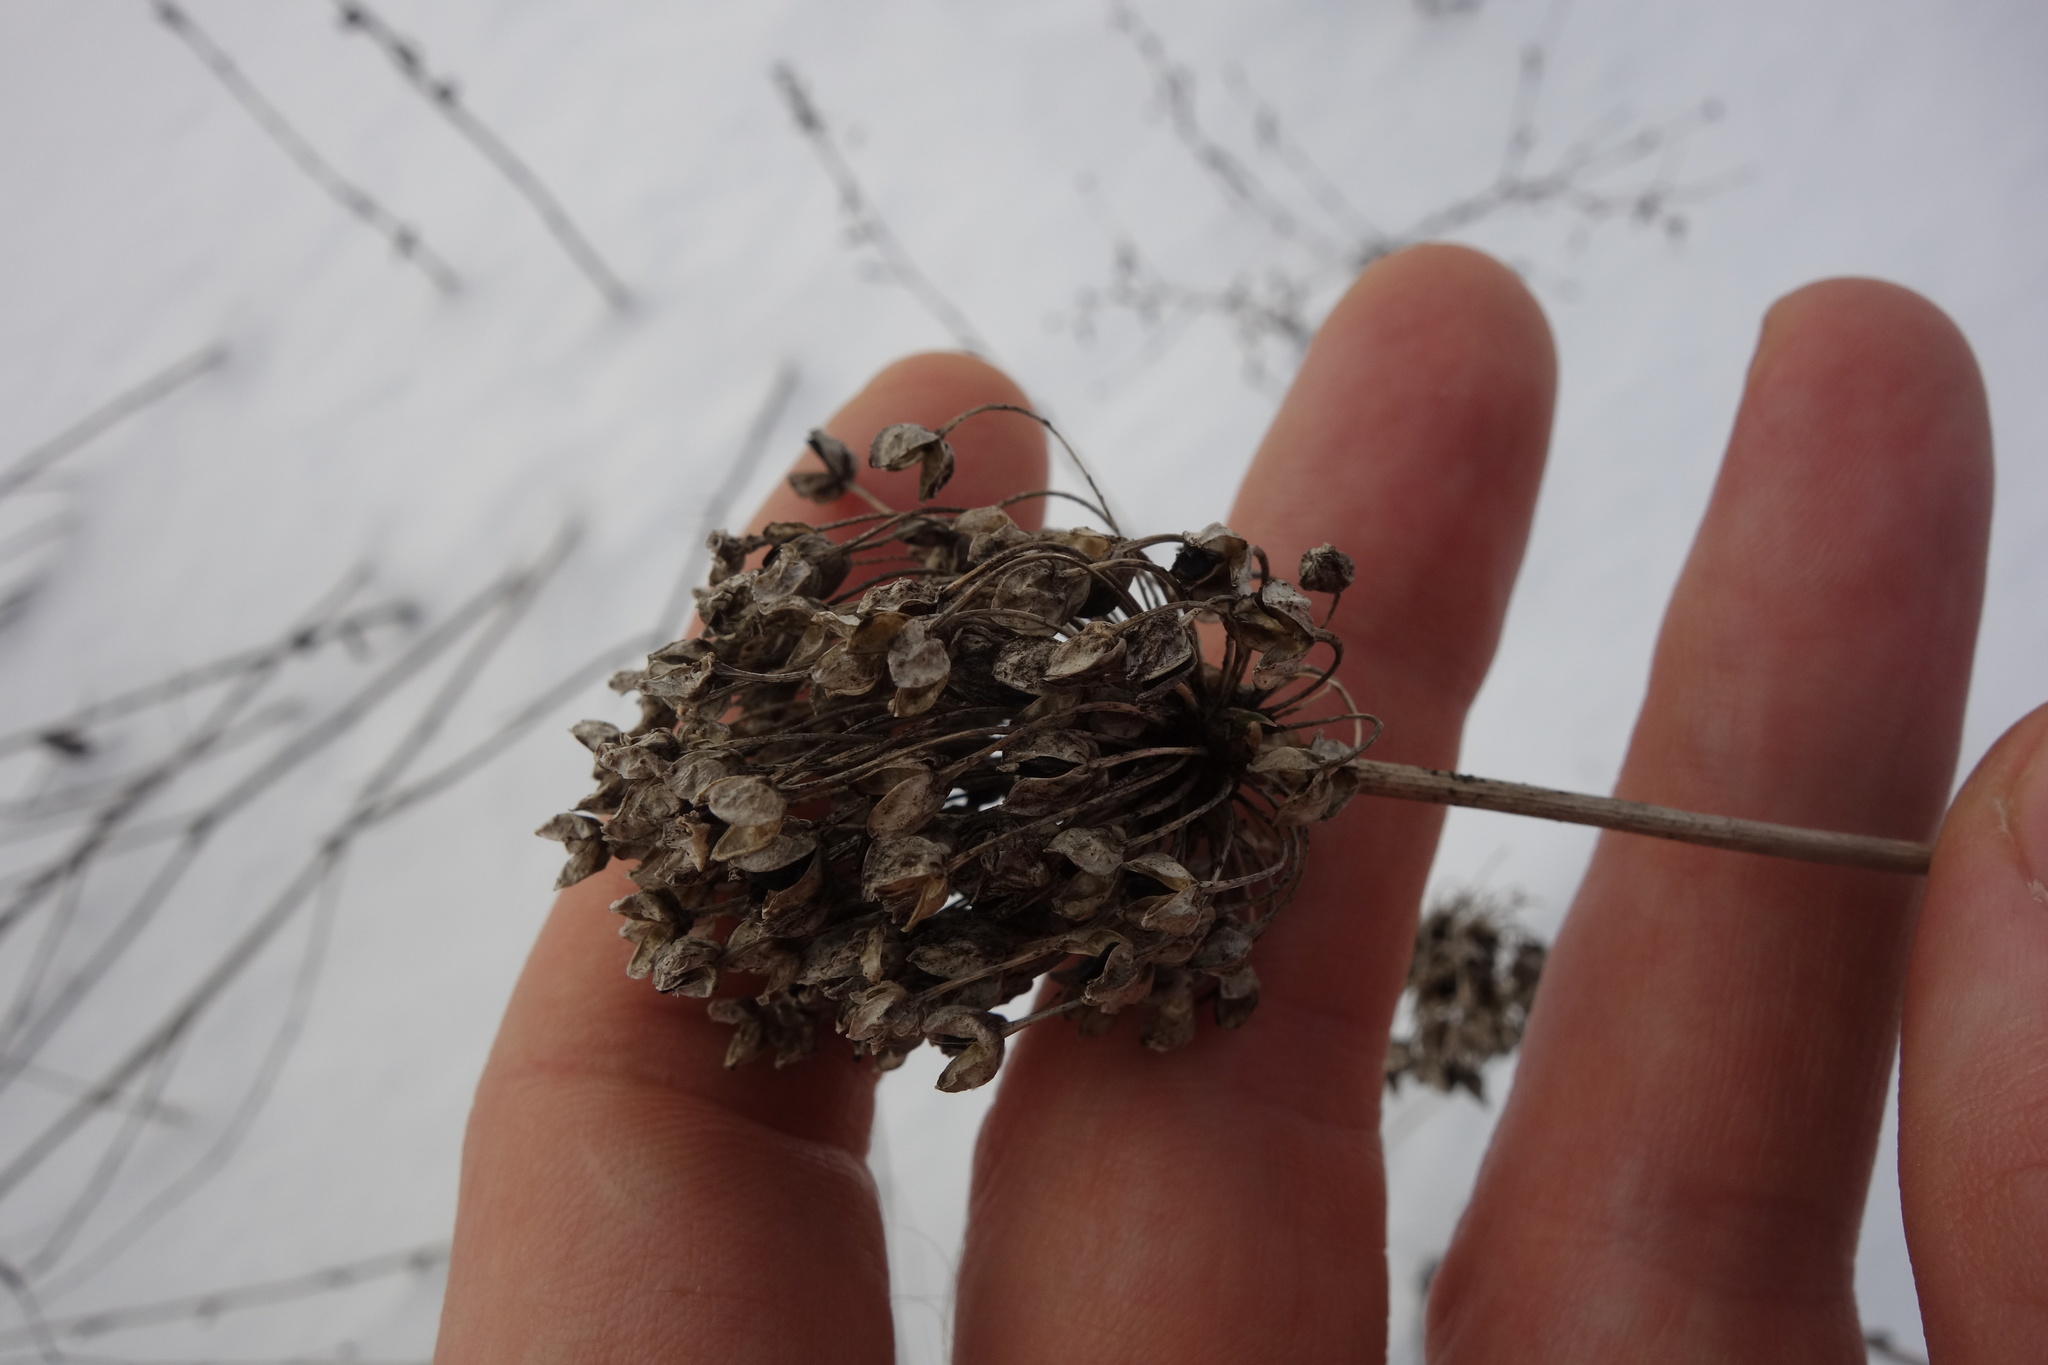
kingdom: Plantae
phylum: Tracheophyta
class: Liliopsida
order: Asparagales
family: Amaryllidaceae
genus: Allium
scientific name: Allium rotundum
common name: Sand leek
